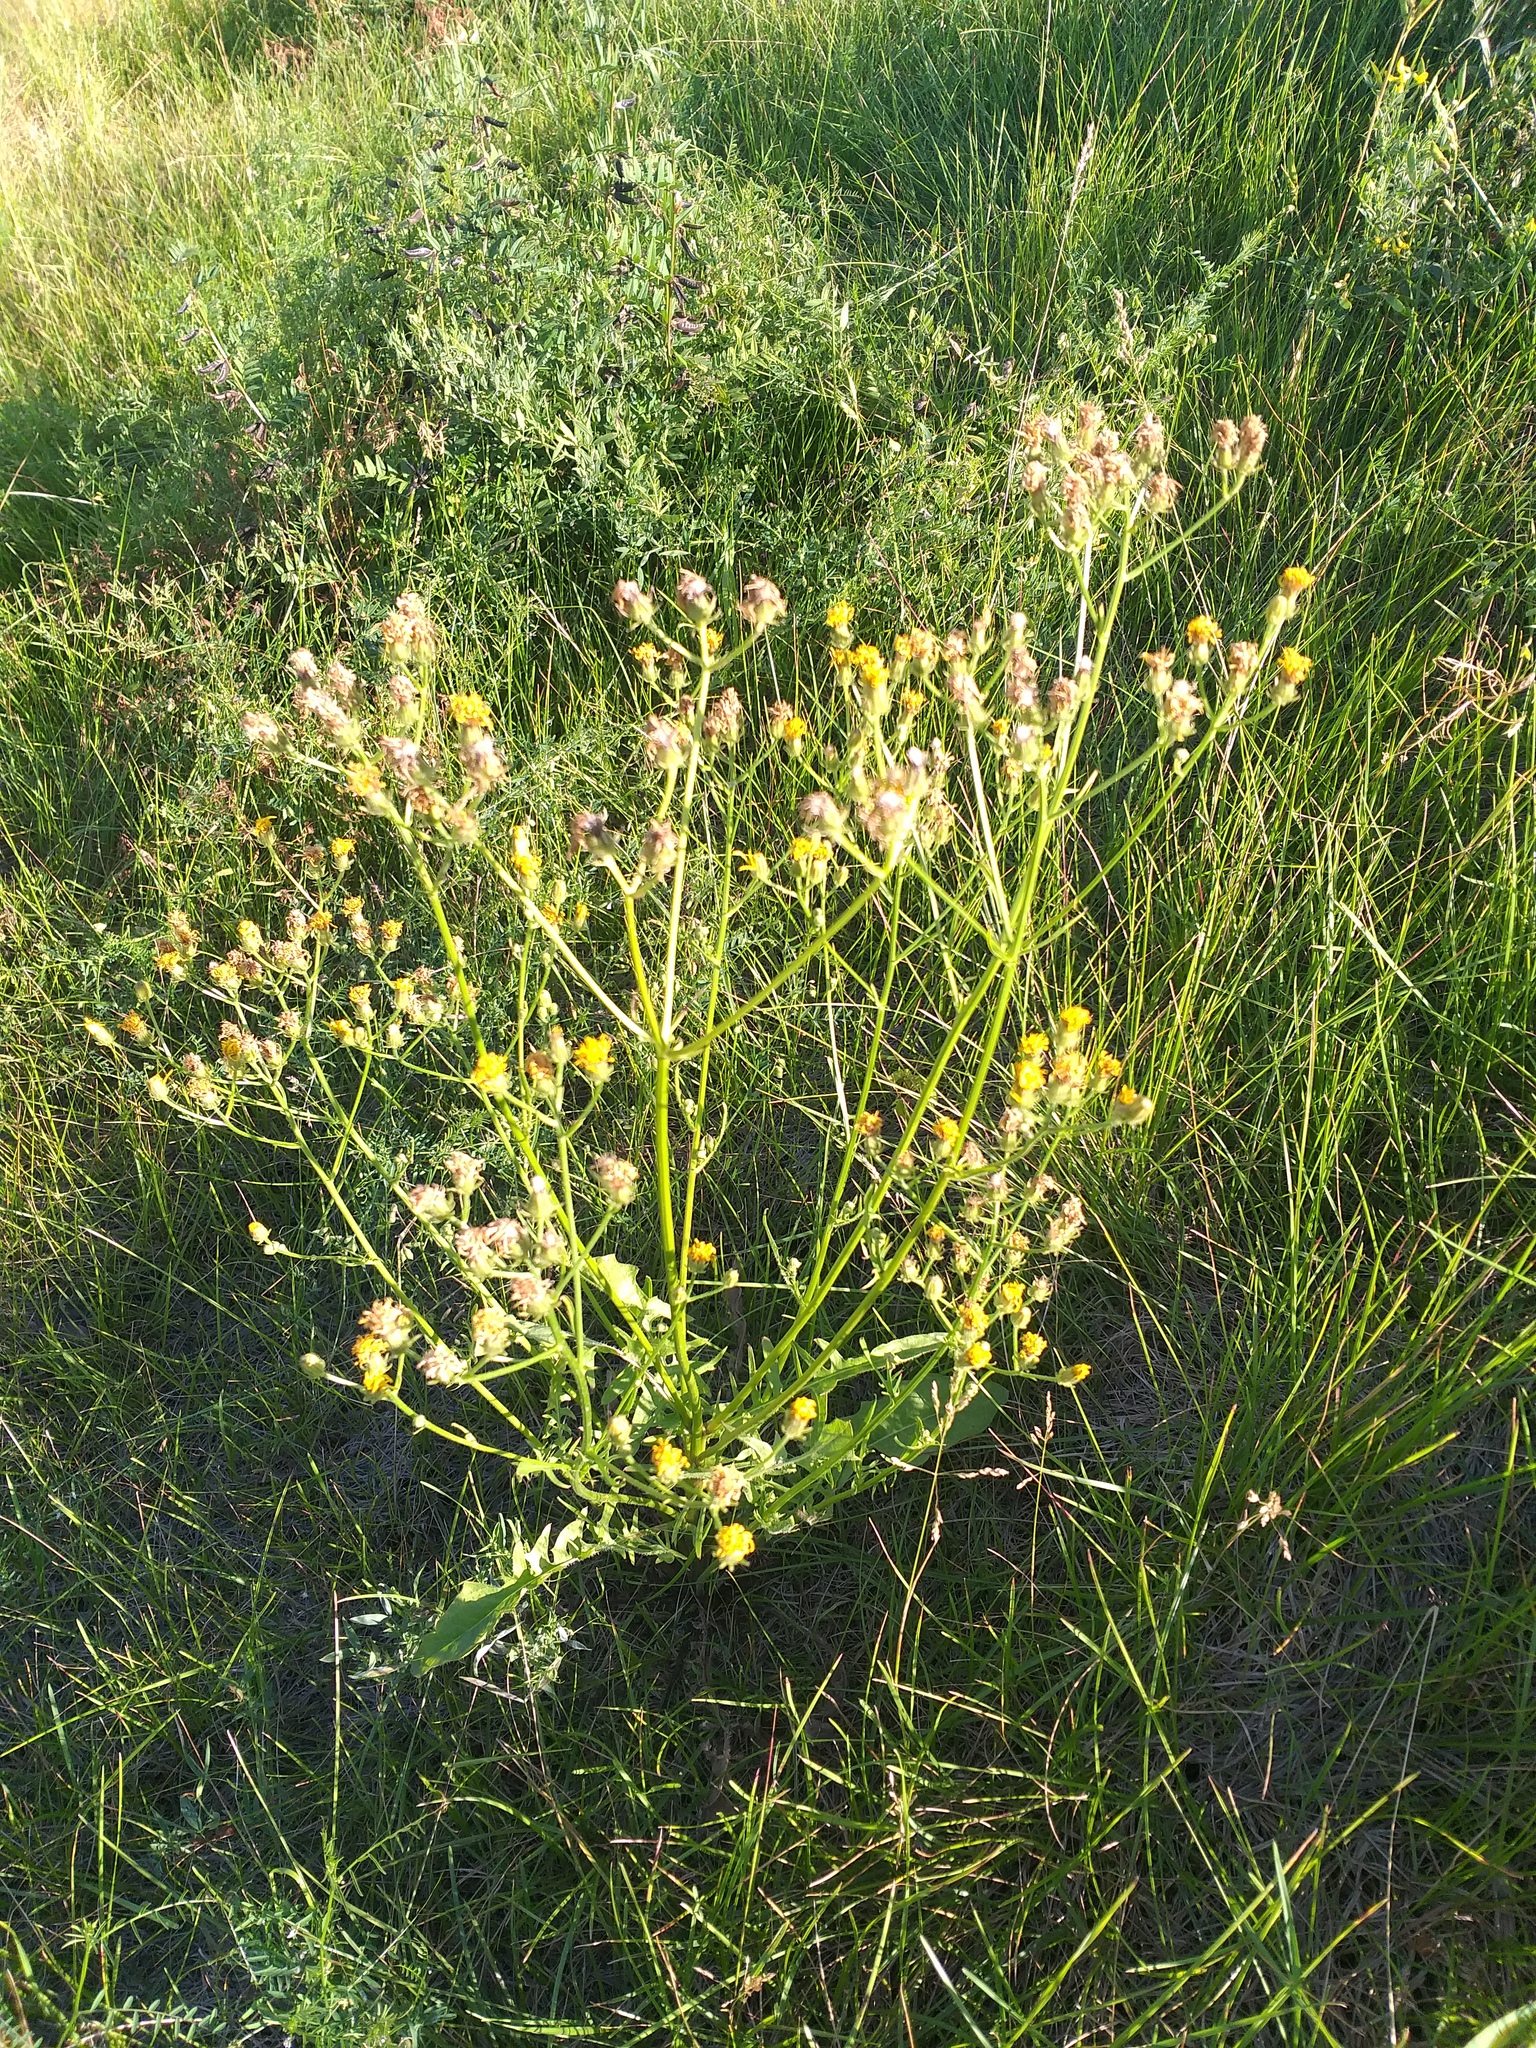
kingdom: Plantae
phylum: Tracheophyta
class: Magnoliopsida
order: Asterales
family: Asteraceae
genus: Crepis
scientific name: Crepis biennis
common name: Rough hawk's-beard
